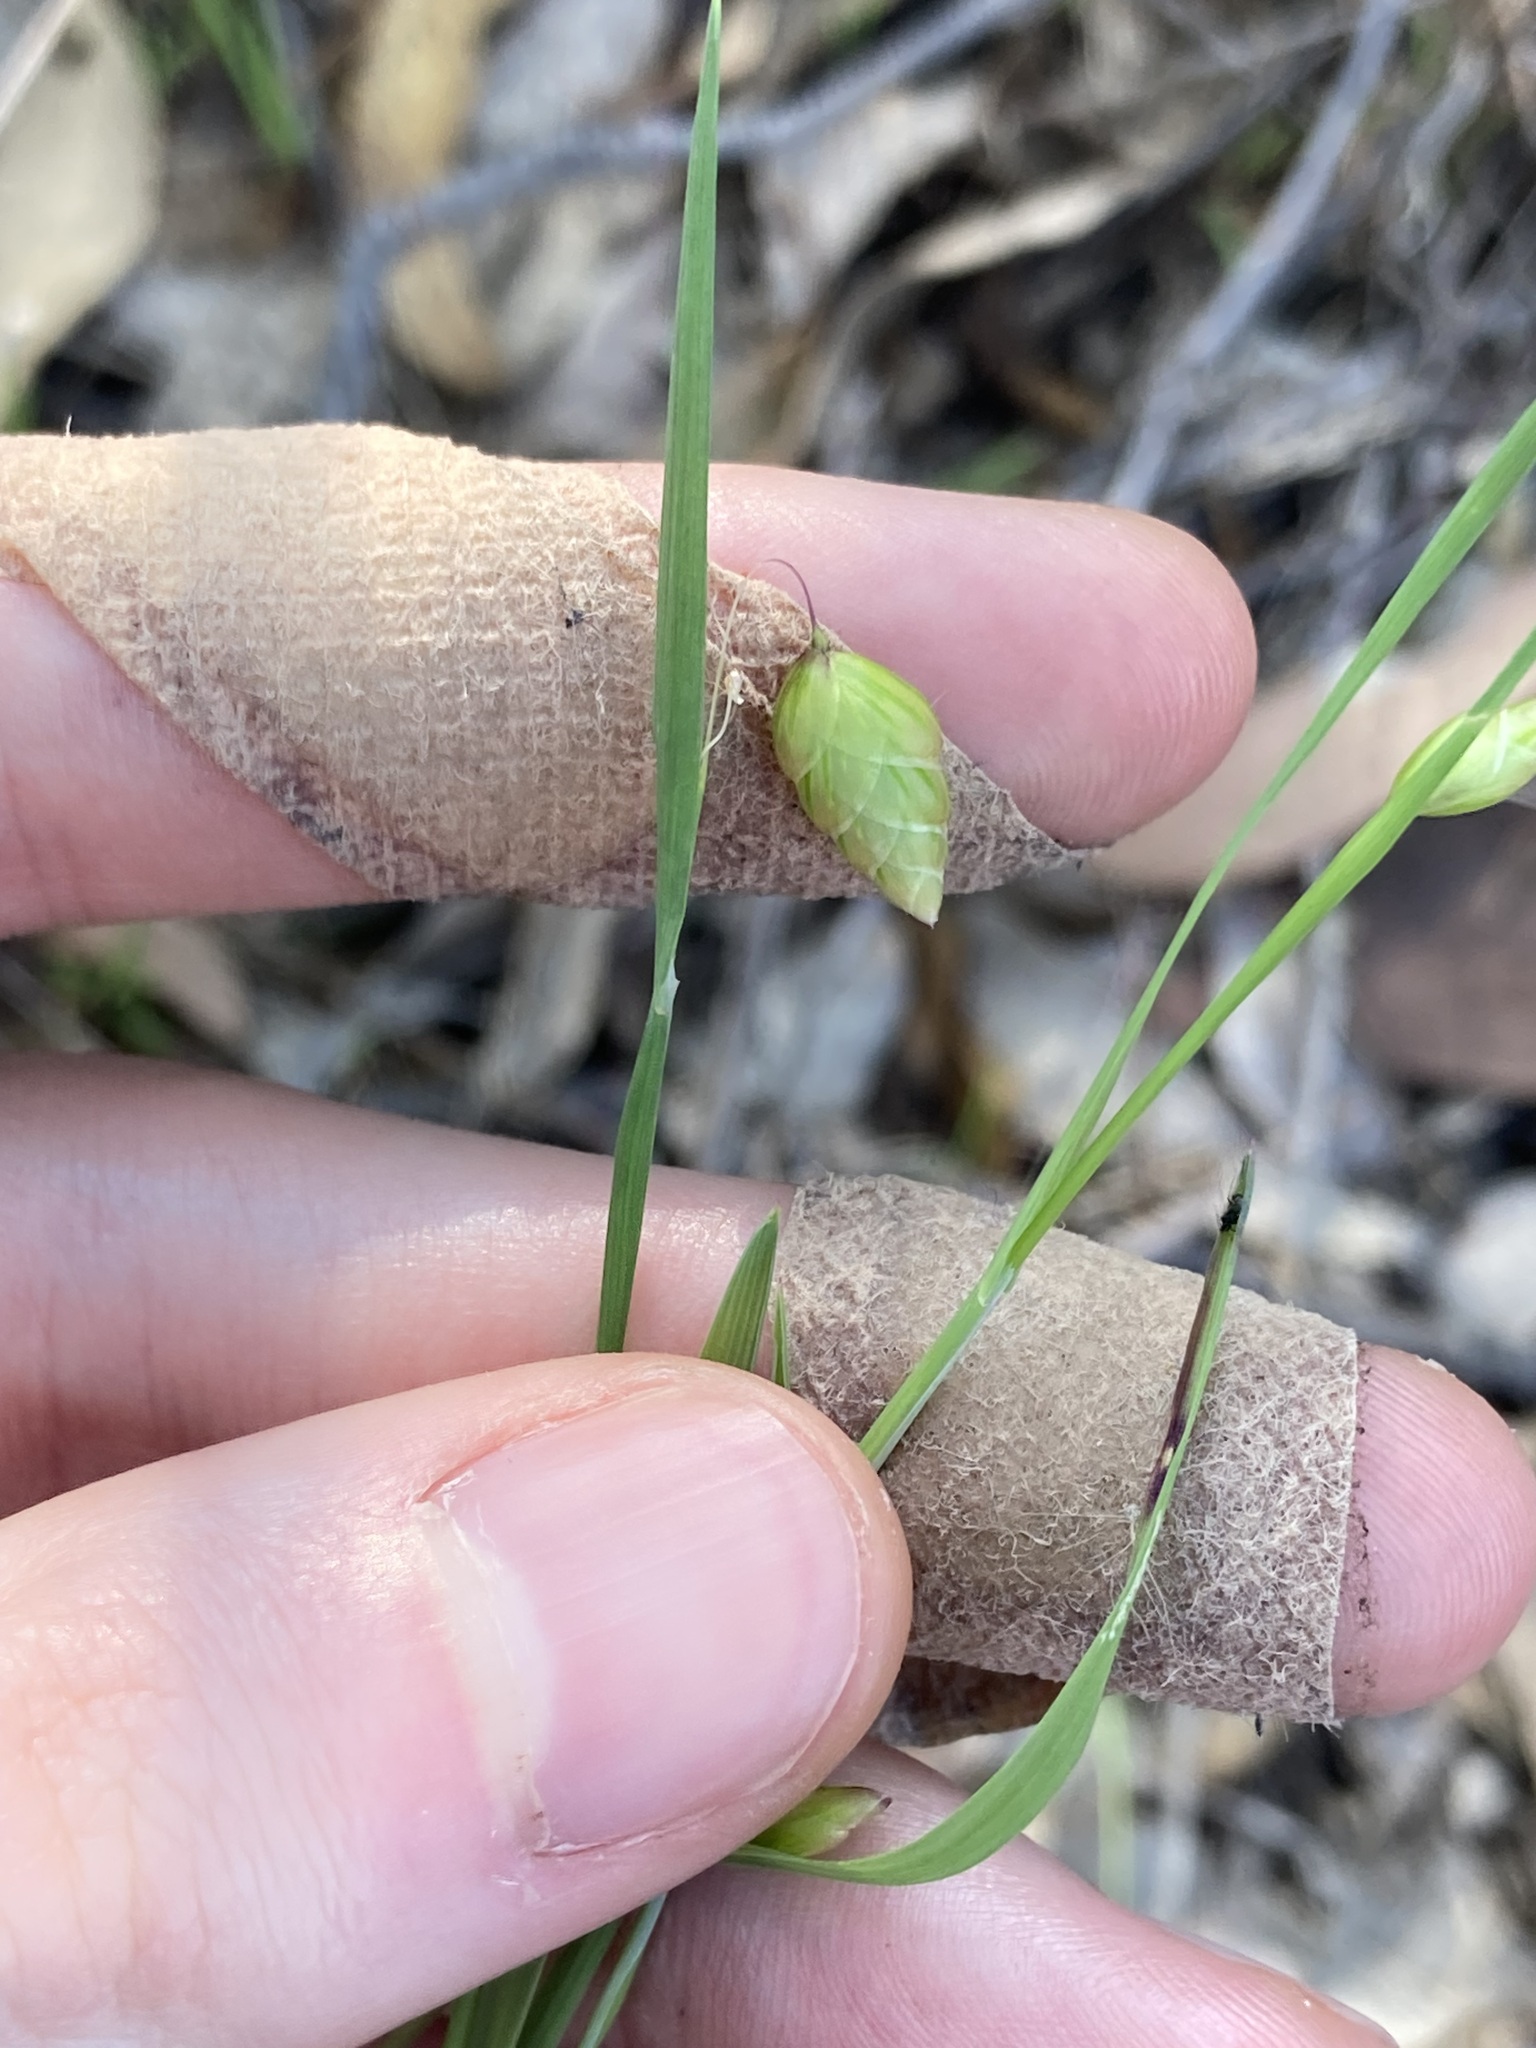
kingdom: Plantae
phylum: Tracheophyta
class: Liliopsida
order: Poales
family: Poaceae
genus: Briza
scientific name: Briza maxima
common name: Big quakinggrass
